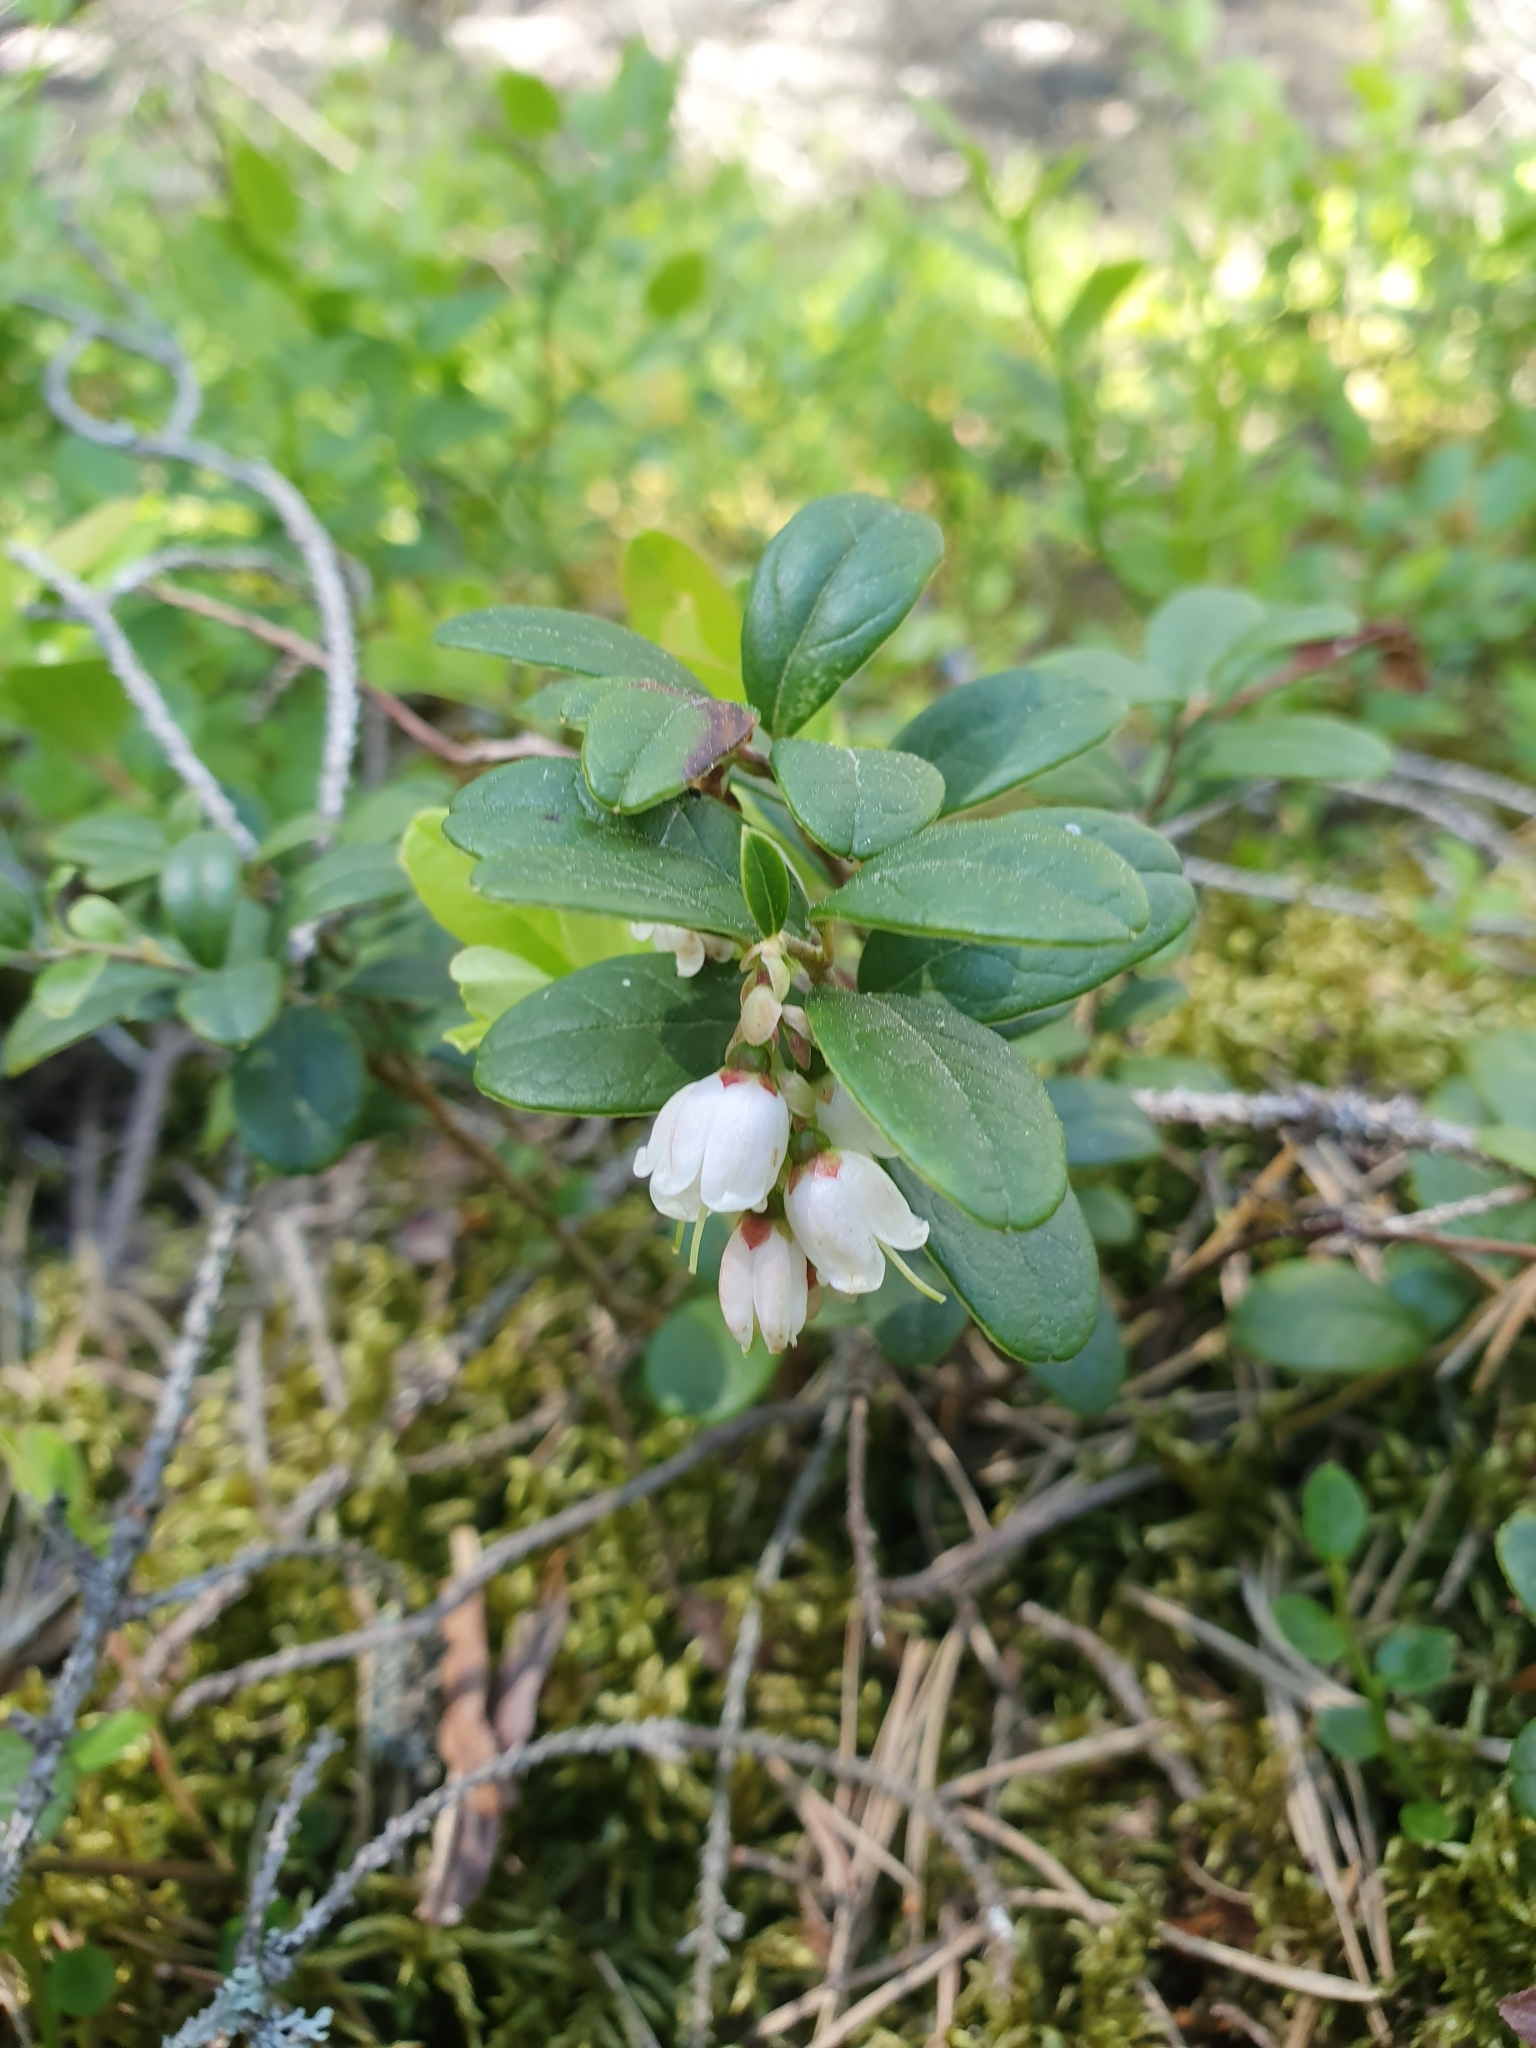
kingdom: Plantae
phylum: Tracheophyta
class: Magnoliopsida
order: Ericales
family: Ericaceae
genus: Vaccinium
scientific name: Vaccinium vitis-idaea
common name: Cowberry
